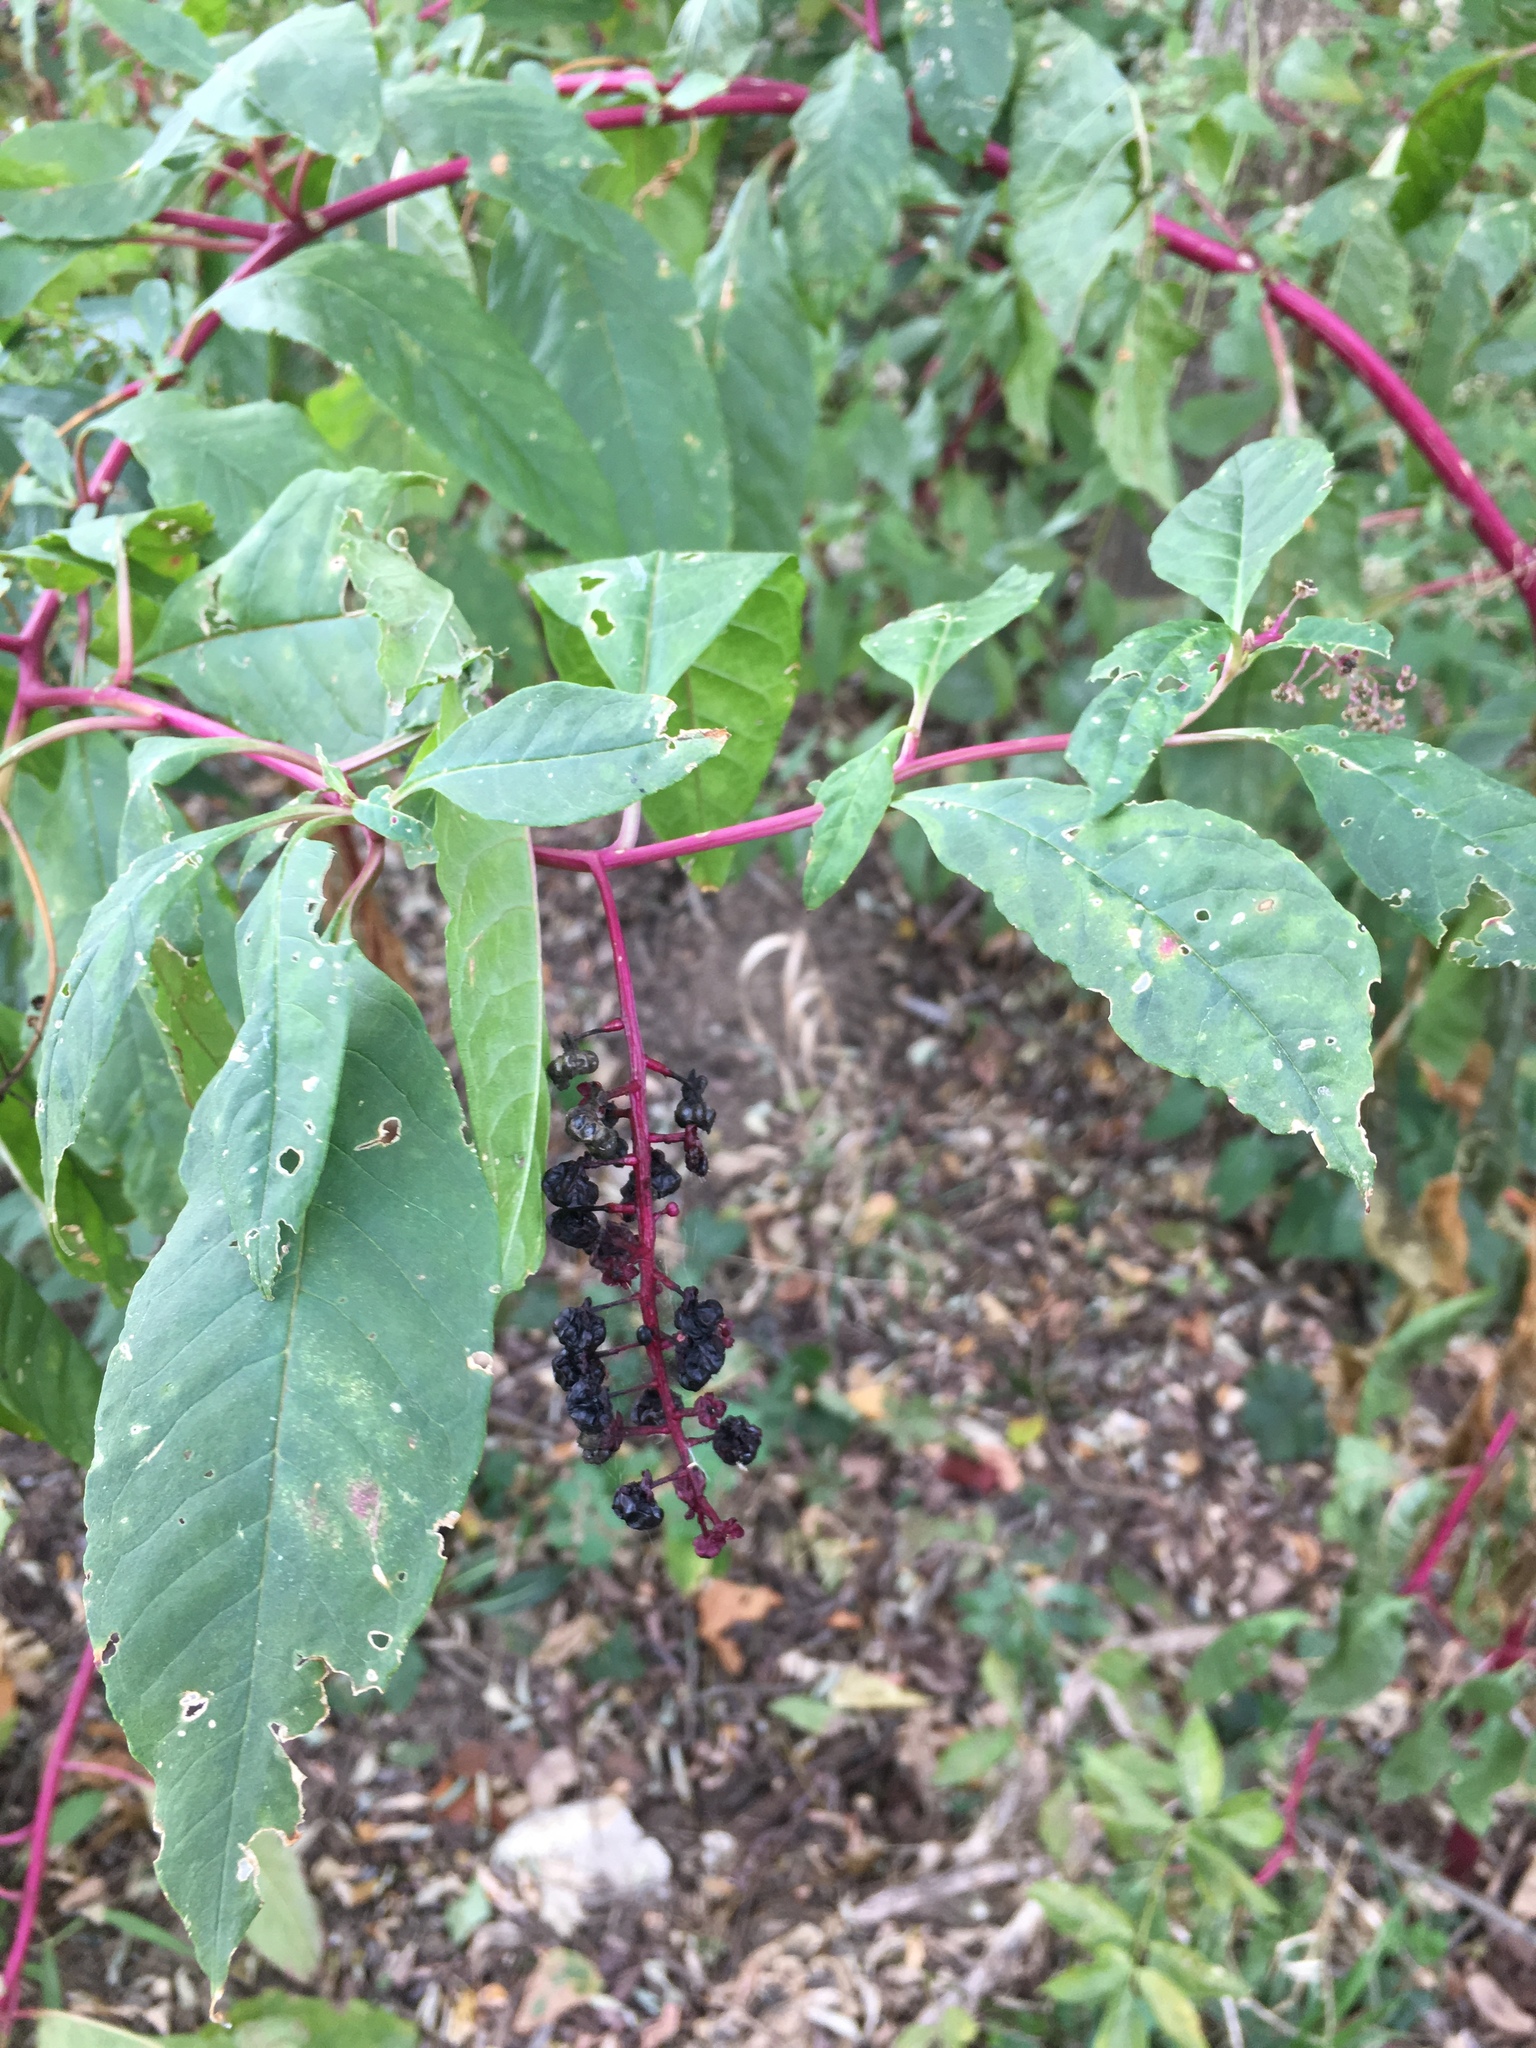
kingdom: Plantae
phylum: Tracheophyta
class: Magnoliopsida
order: Caryophyllales
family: Phytolaccaceae
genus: Phytolacca
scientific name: Phytolacca americana
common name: American pokeweed
